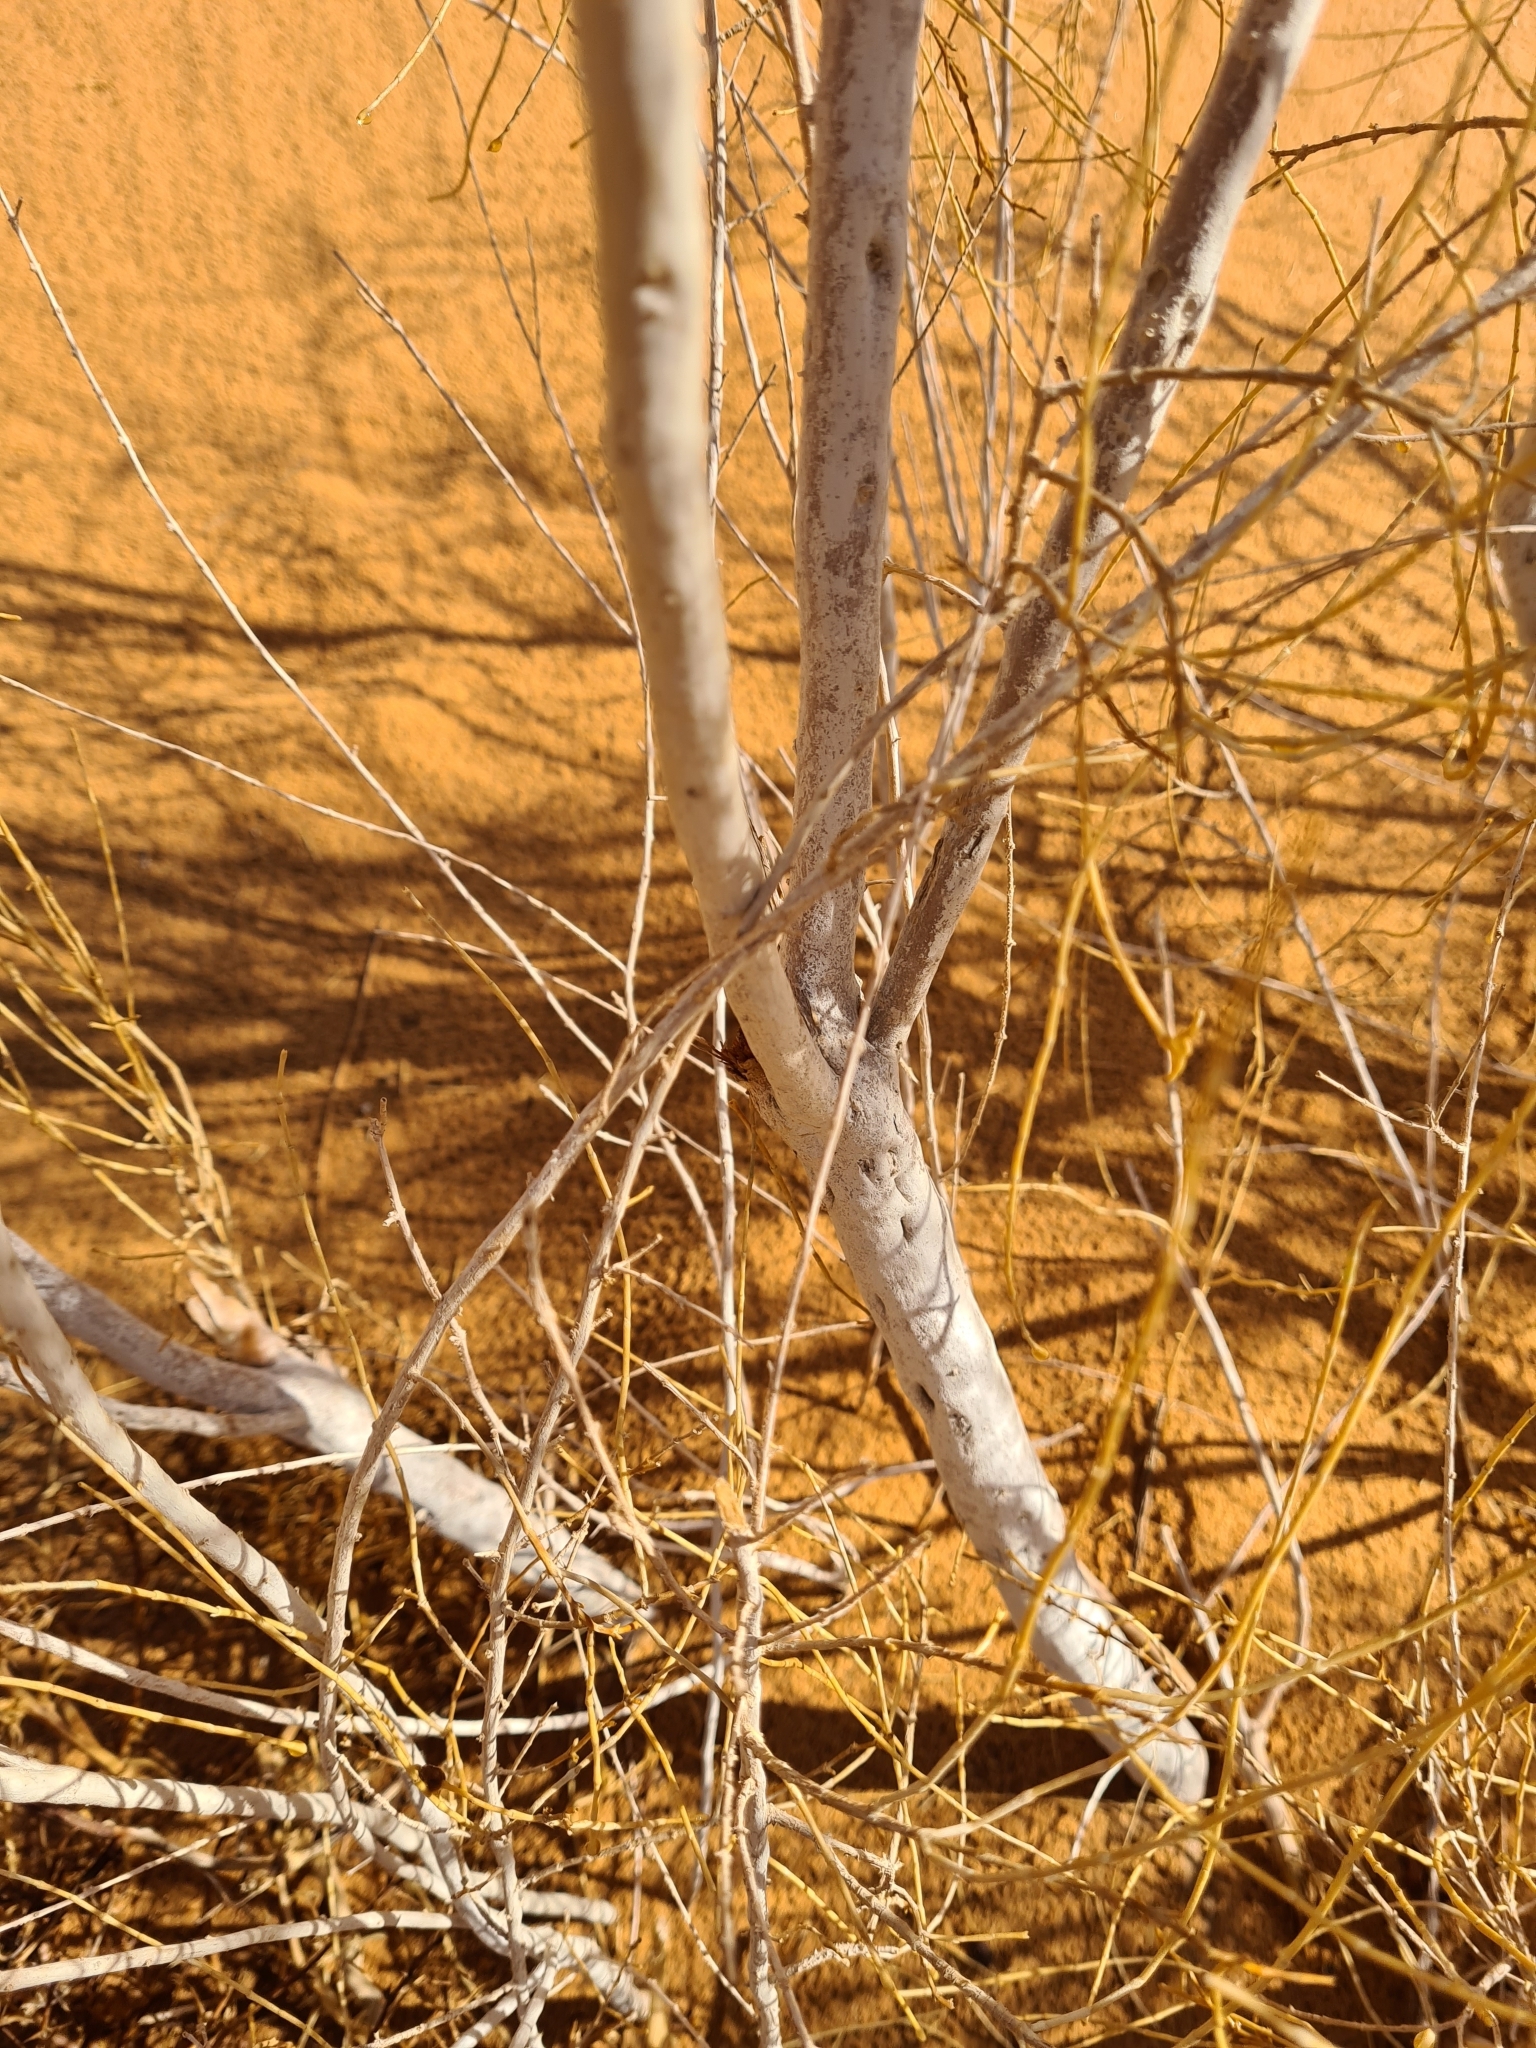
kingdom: Plantae
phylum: Tracheophyta
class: Magnoliopsida
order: Caryophyllales
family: Amaranthaceae
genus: Haloxylon
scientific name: Haloxylon persicum
